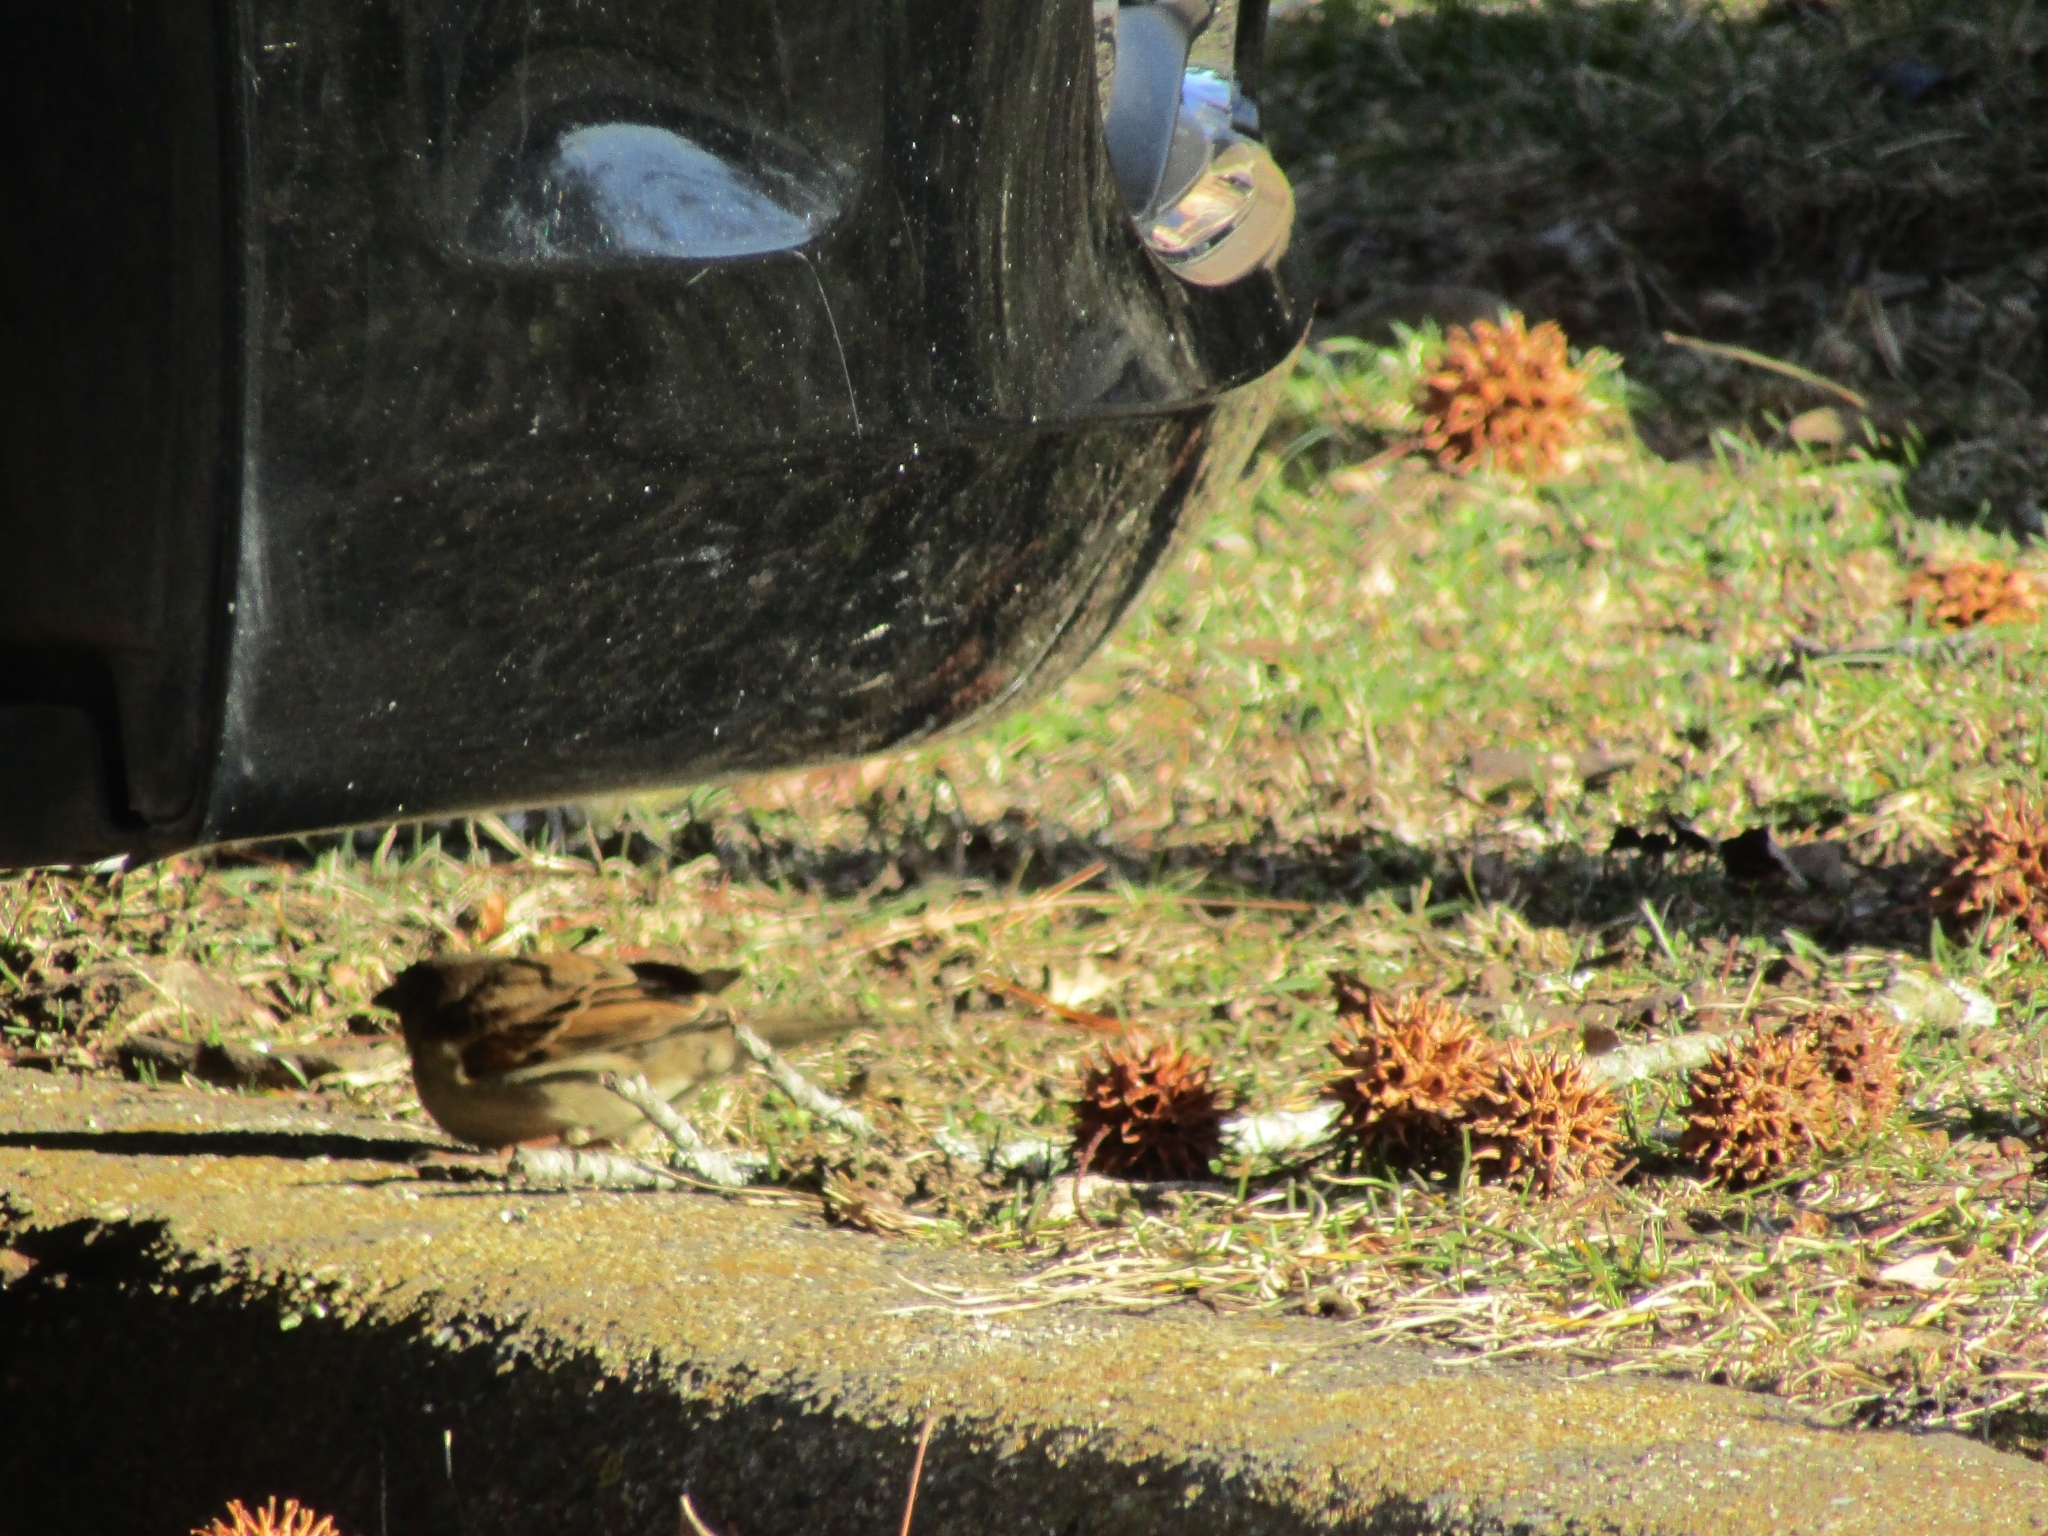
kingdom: Animalia
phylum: Chordata
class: Aves
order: Passeriformes
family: Passeridae
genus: Passer
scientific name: Passer domesticus
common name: House sparrow
